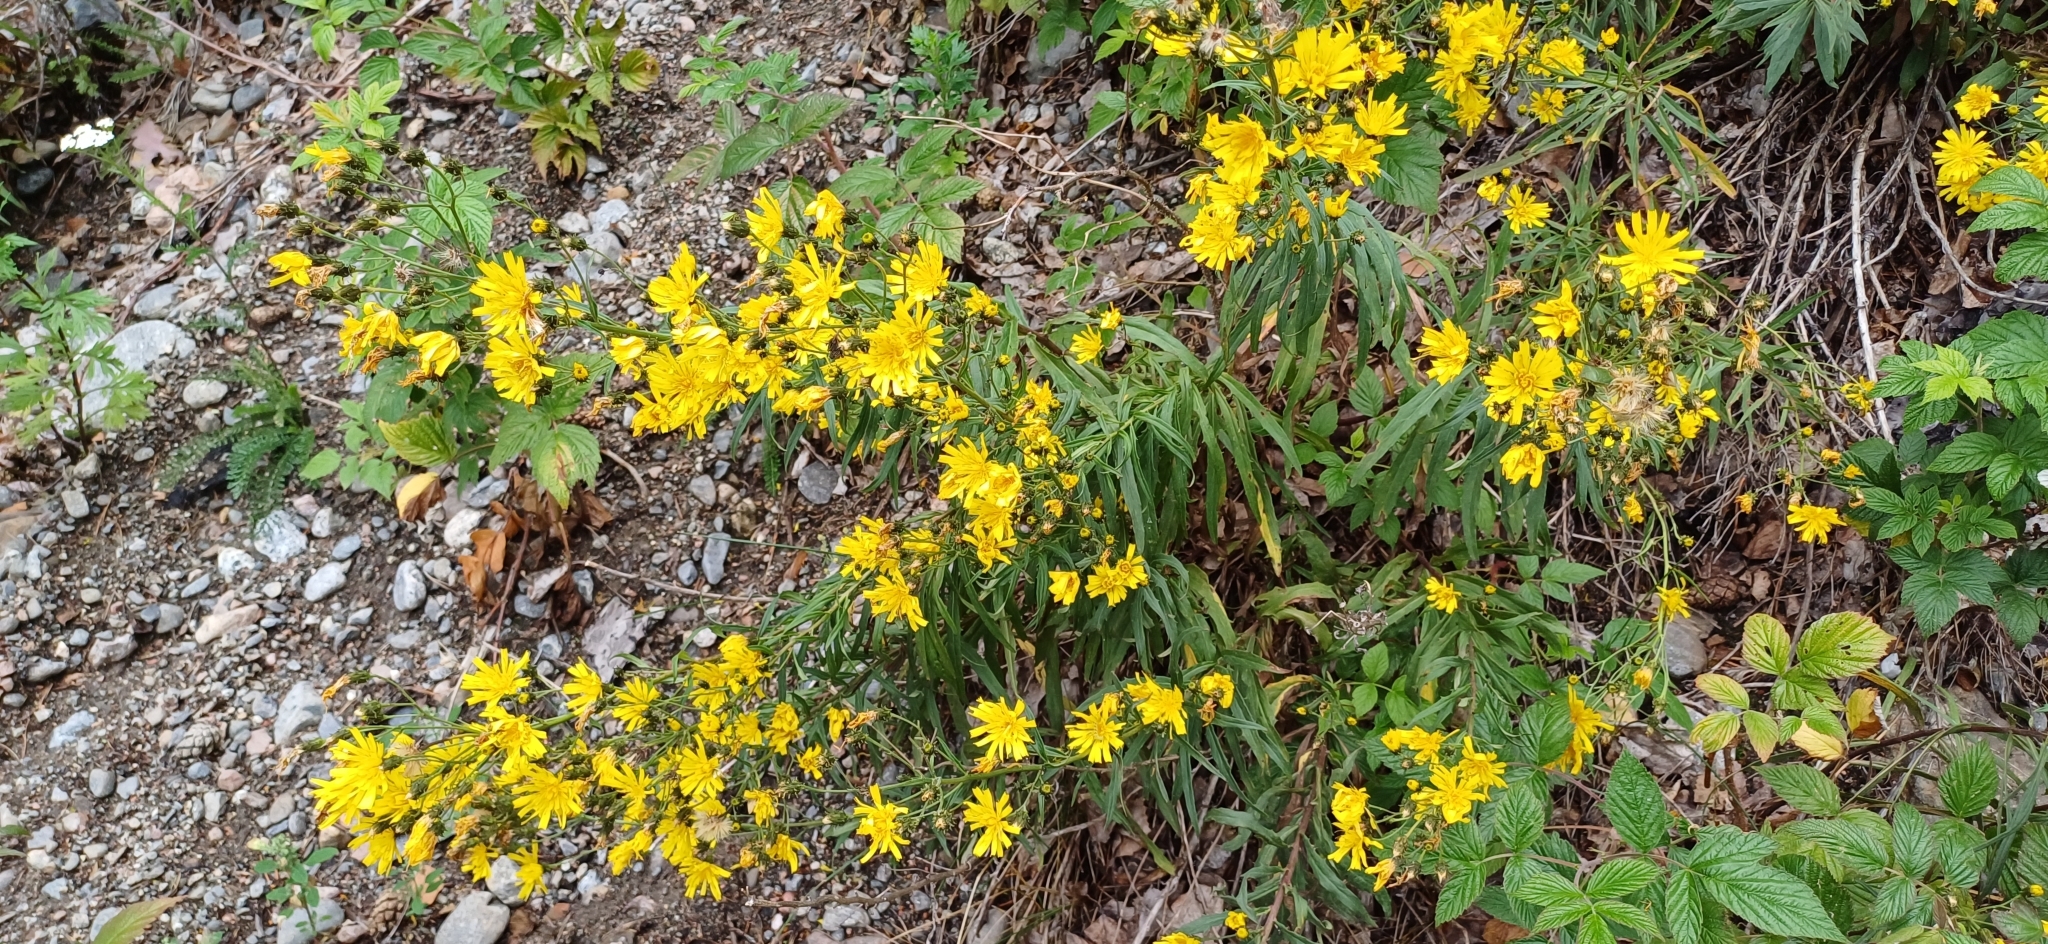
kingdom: Plantae
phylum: Tracheophyta
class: Magnoliopsida
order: Asterales
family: Asteraceae
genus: Hieracium
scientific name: Hieracium umbellatum
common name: Northern hawkweed
